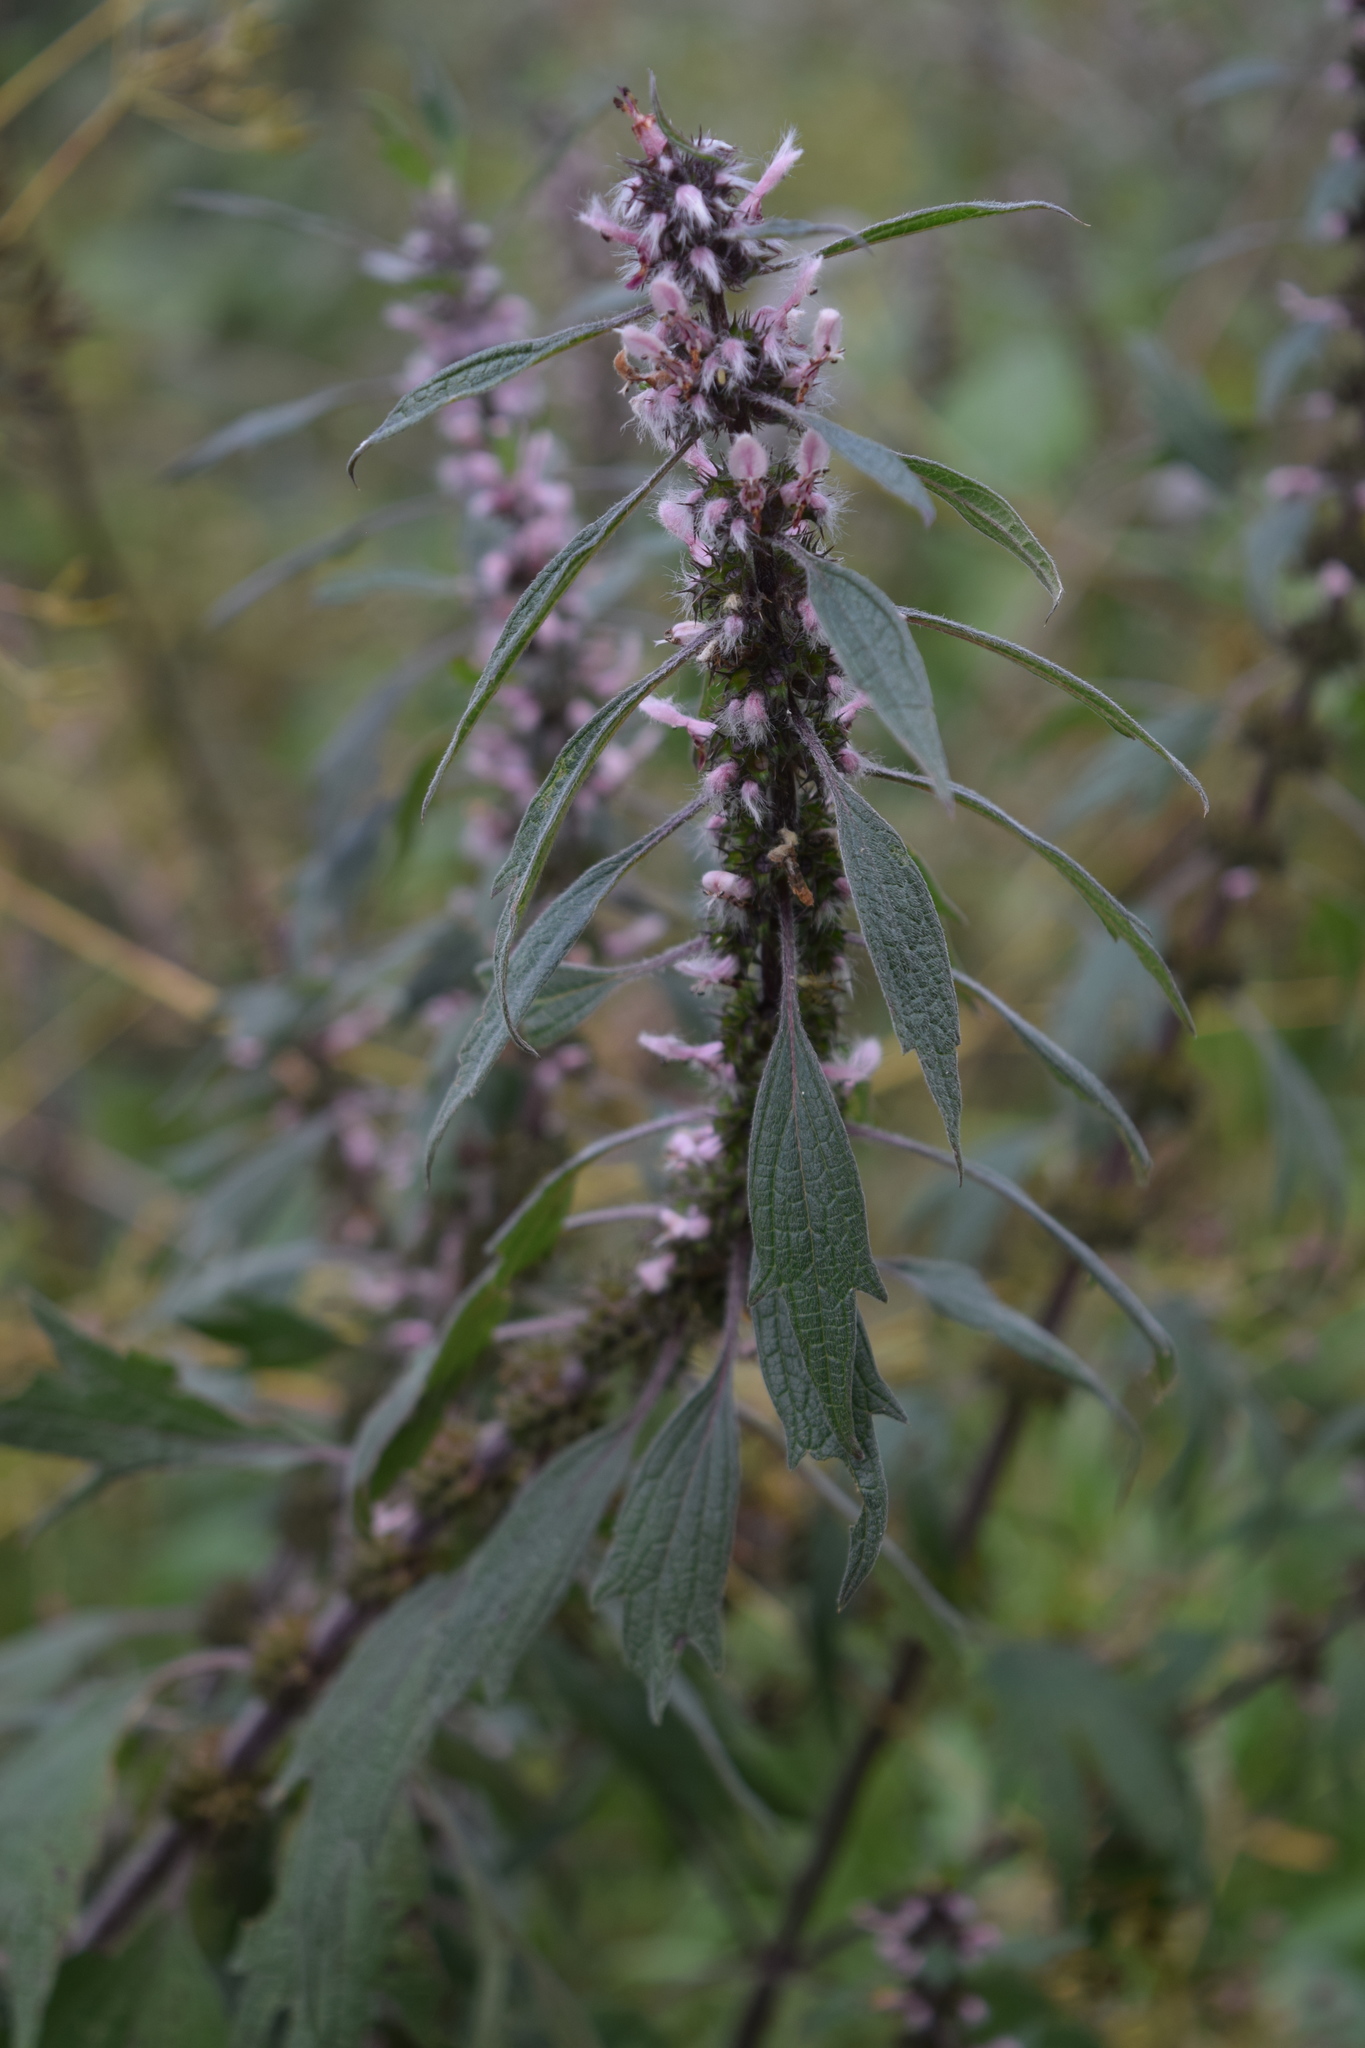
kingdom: Plantae
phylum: Tracheophyta
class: Magnoliopsida
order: Lamiales
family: Lamiaceae
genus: Leonurus
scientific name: Leonurus quinquelobatus
